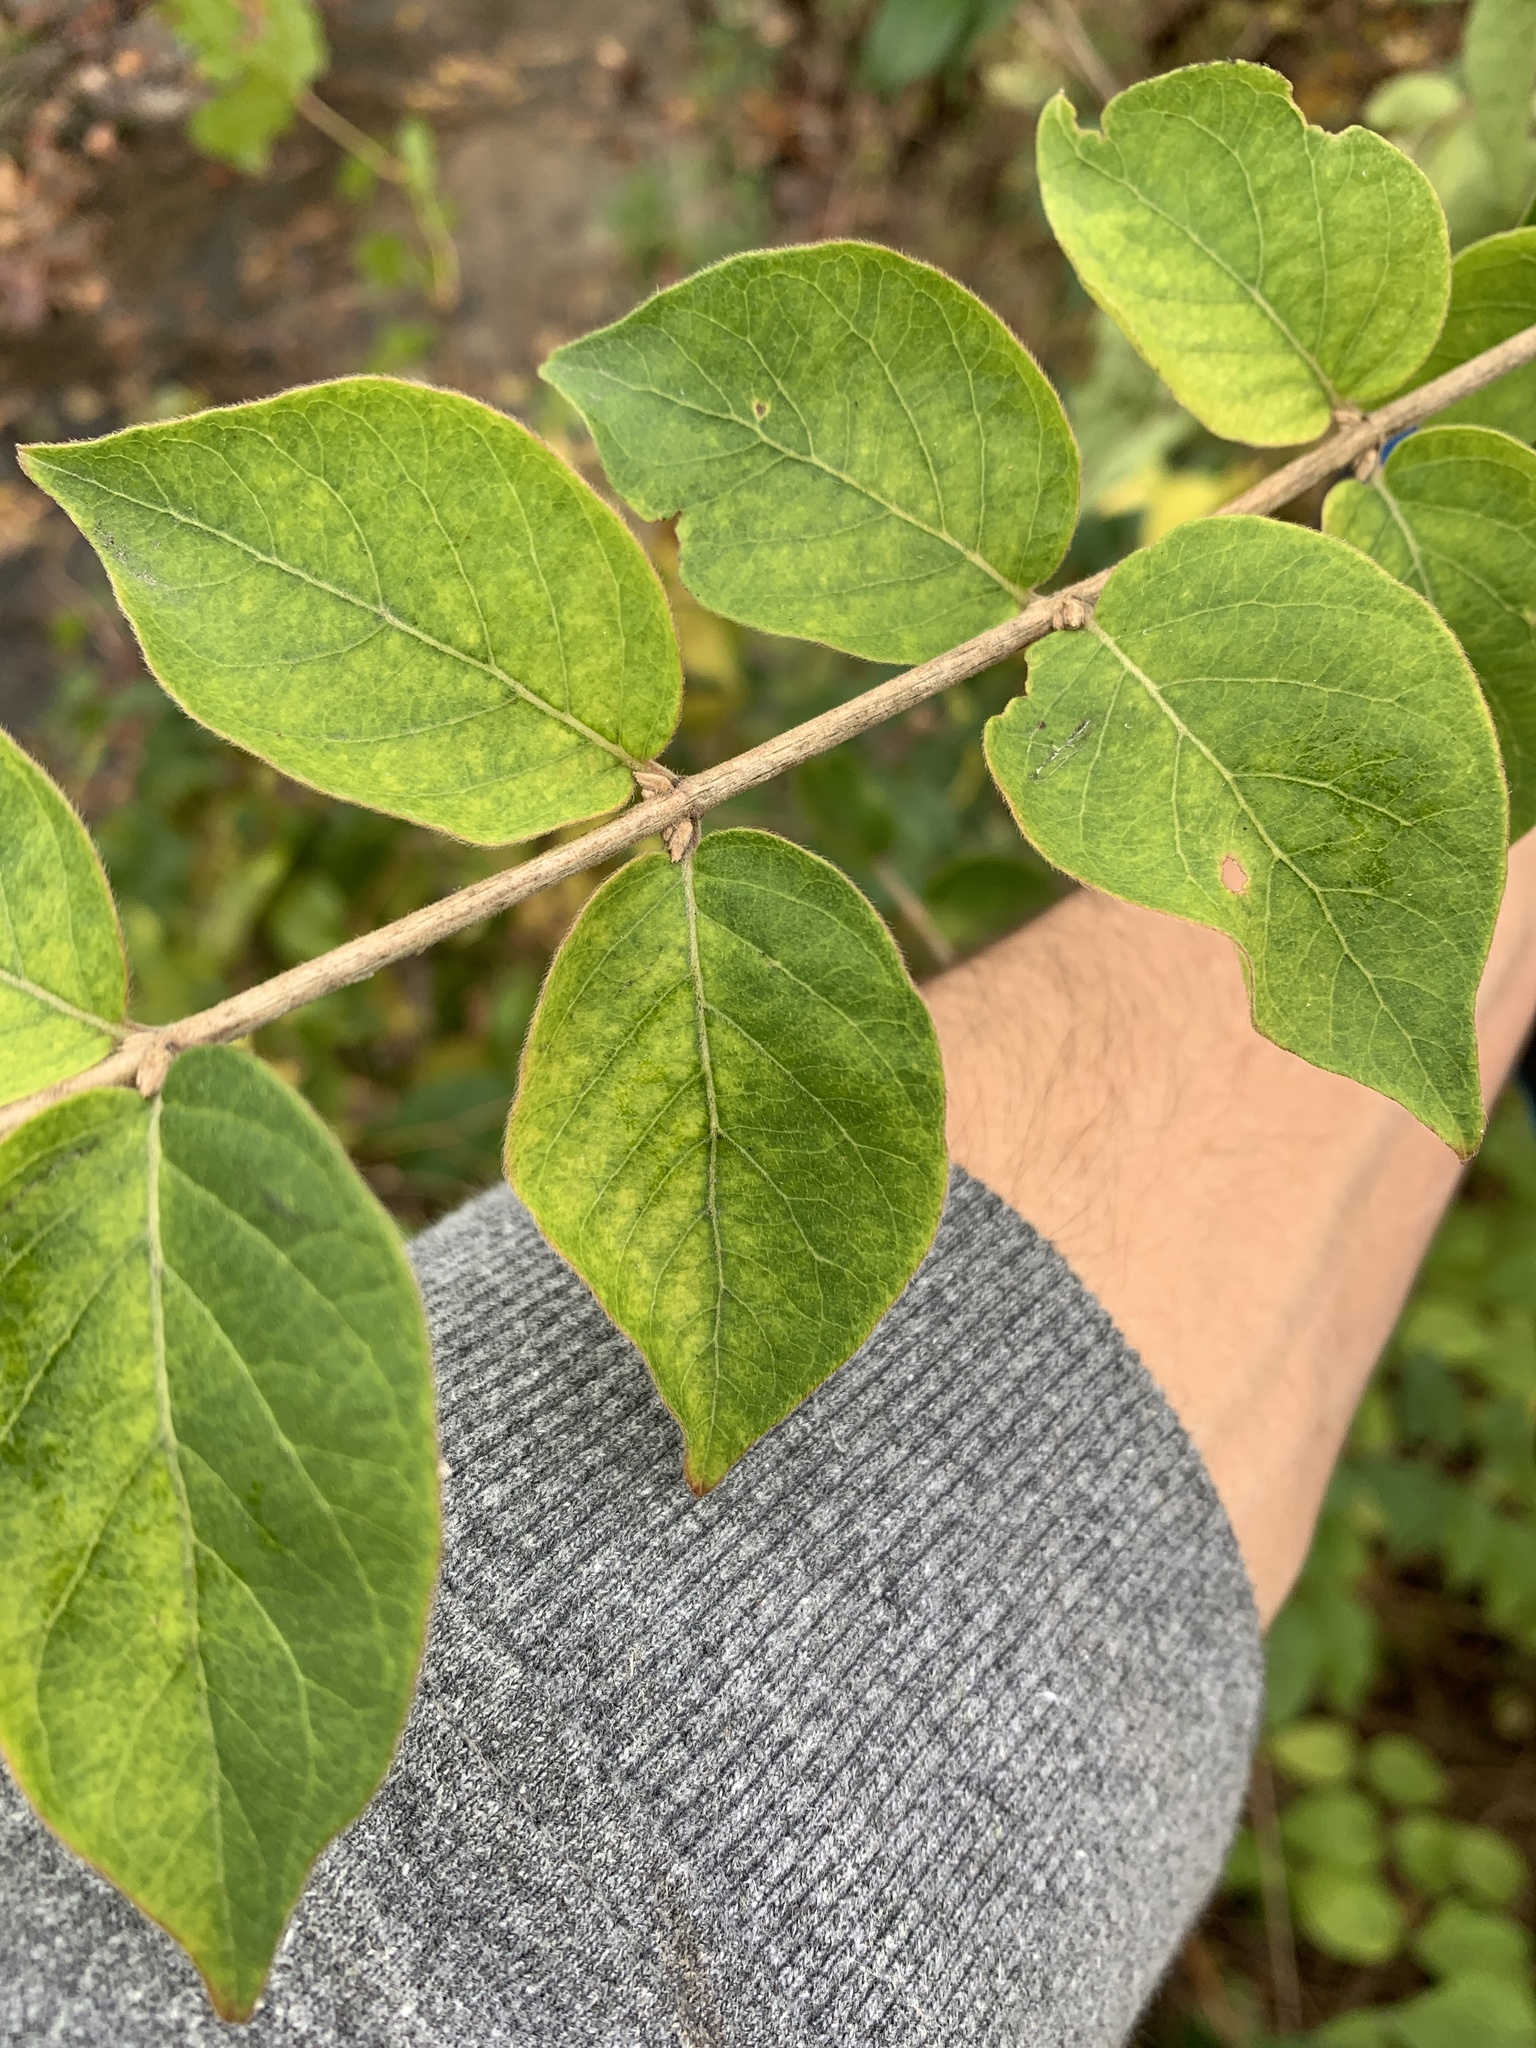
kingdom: Plantae
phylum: Tracheophyta
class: Magnoliopsida
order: Dipsacales
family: Caprifoliaceae
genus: Lonicera
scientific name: Lonicera maackii
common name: Amur honeysuckle
